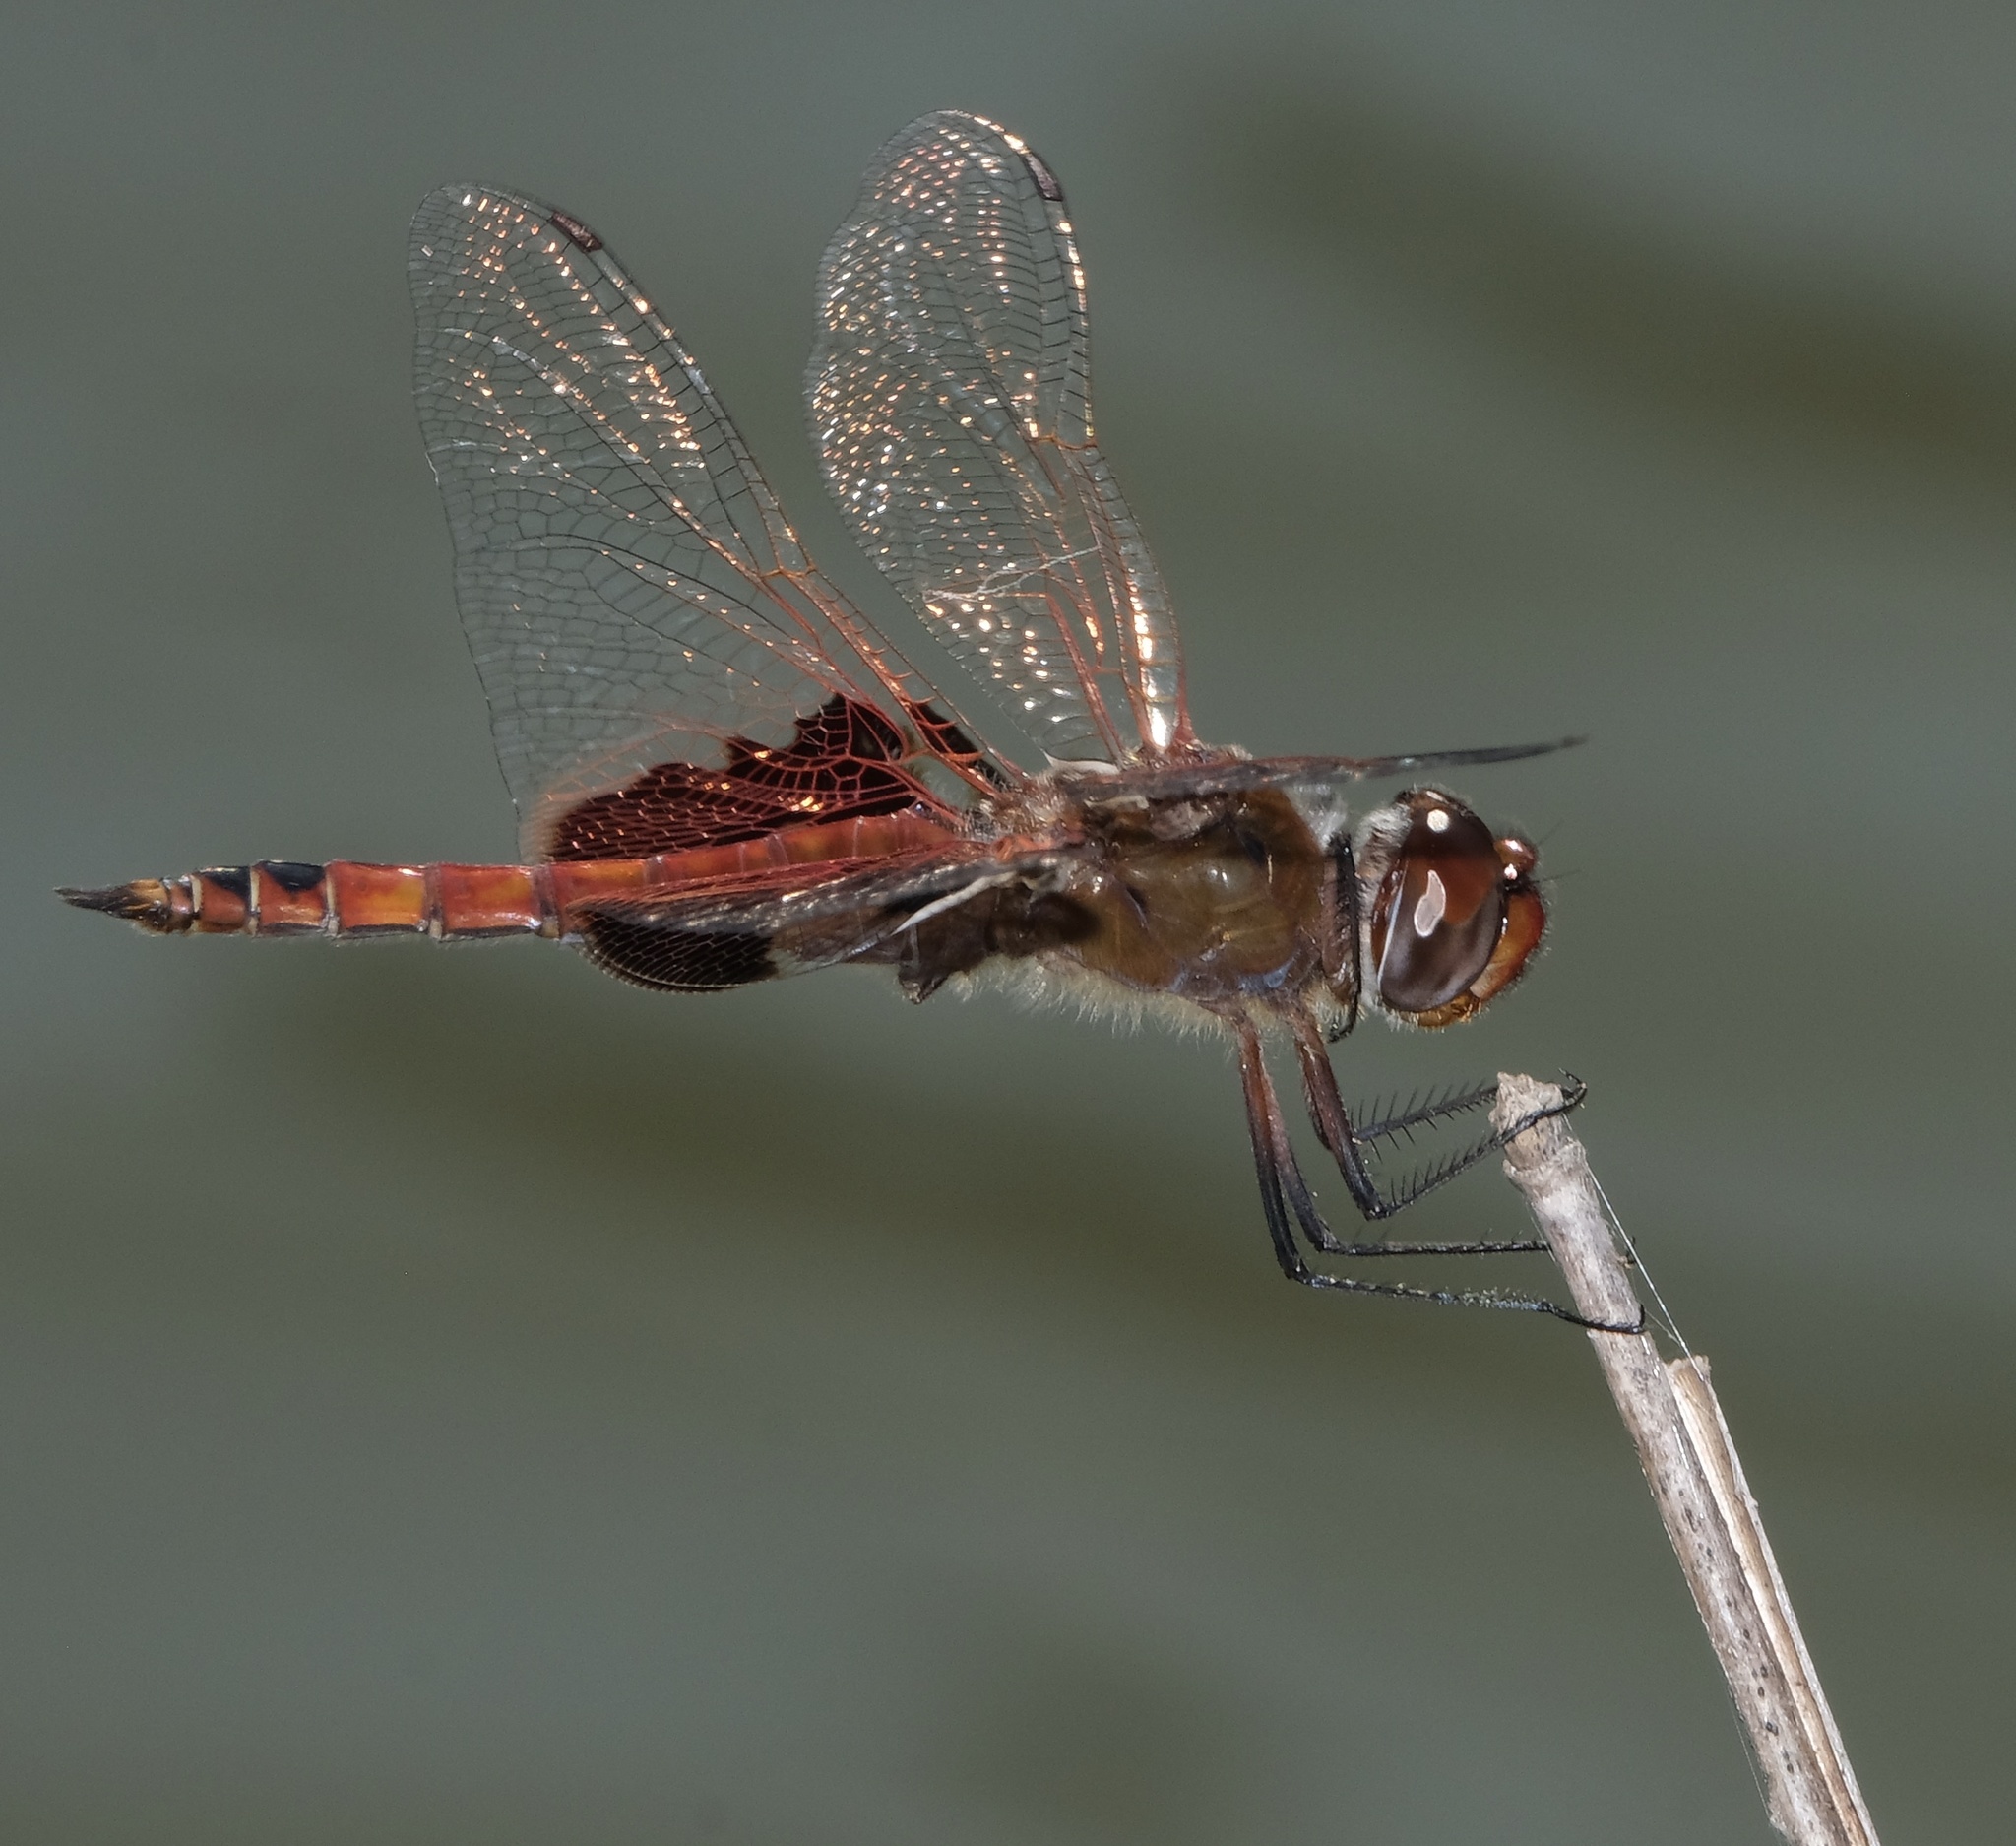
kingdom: Animalia
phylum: Arthropoda
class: Insecta
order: Odonata
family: Libellulidae
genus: Tramea
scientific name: Tramea onusta
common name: Red saddlebags
